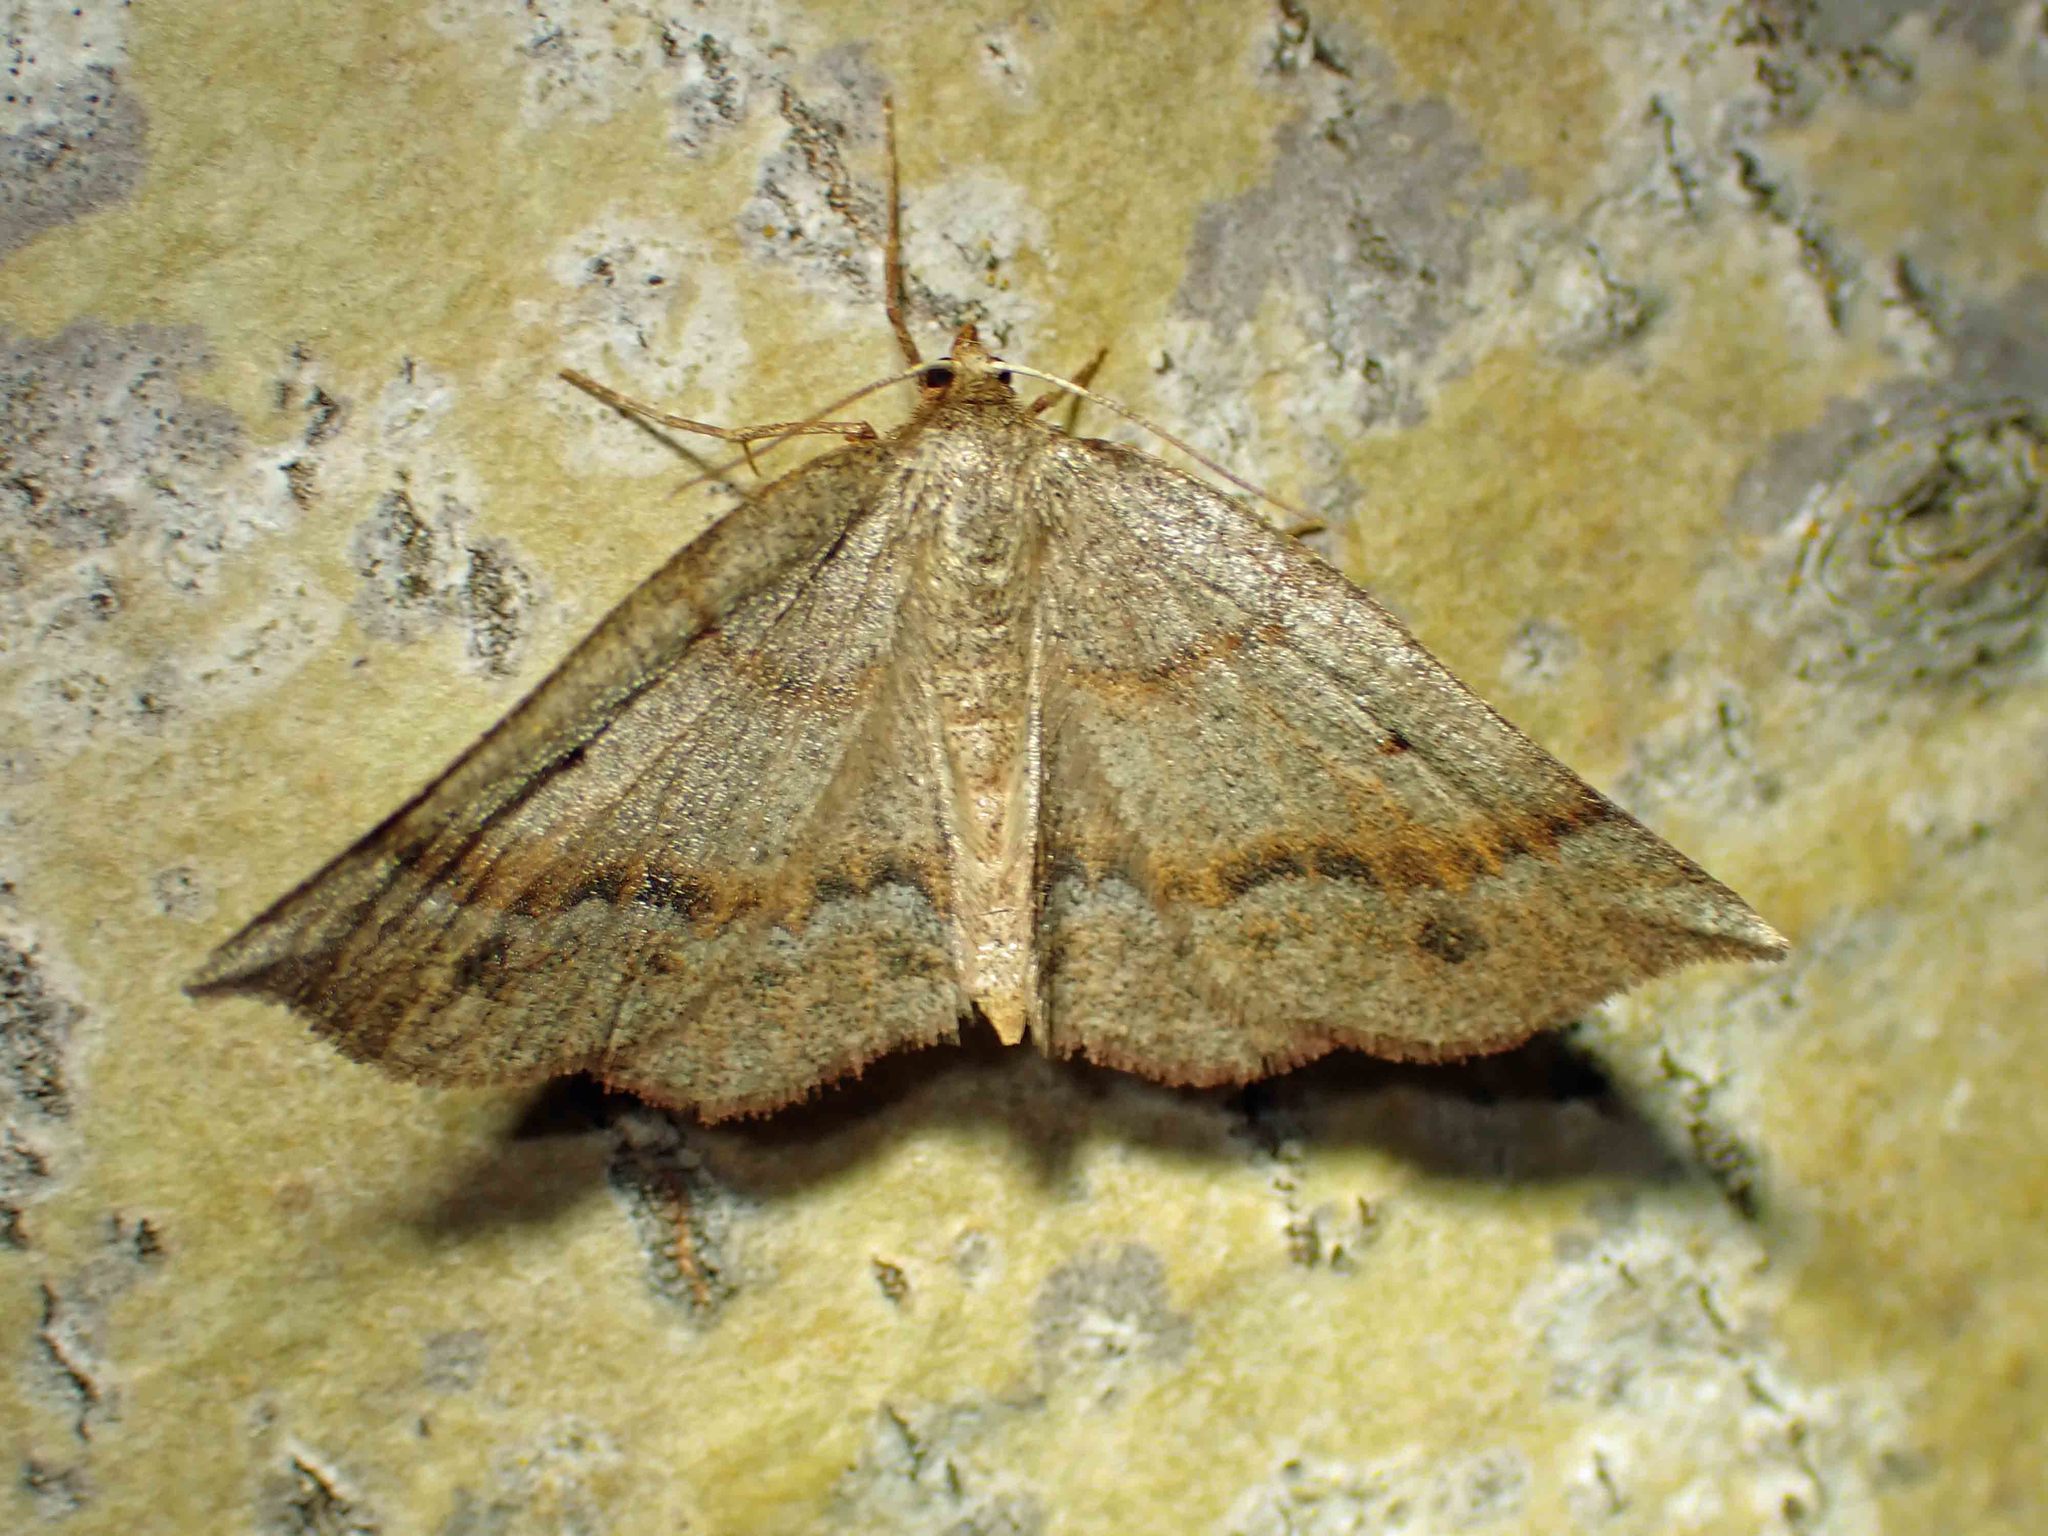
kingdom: Animalia
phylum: Arthropoda
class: Insecta
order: Lepidoptera
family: Geometridae
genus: Metarranthis
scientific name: Metarranthis duaria
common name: Ruddy metarranthis moth
